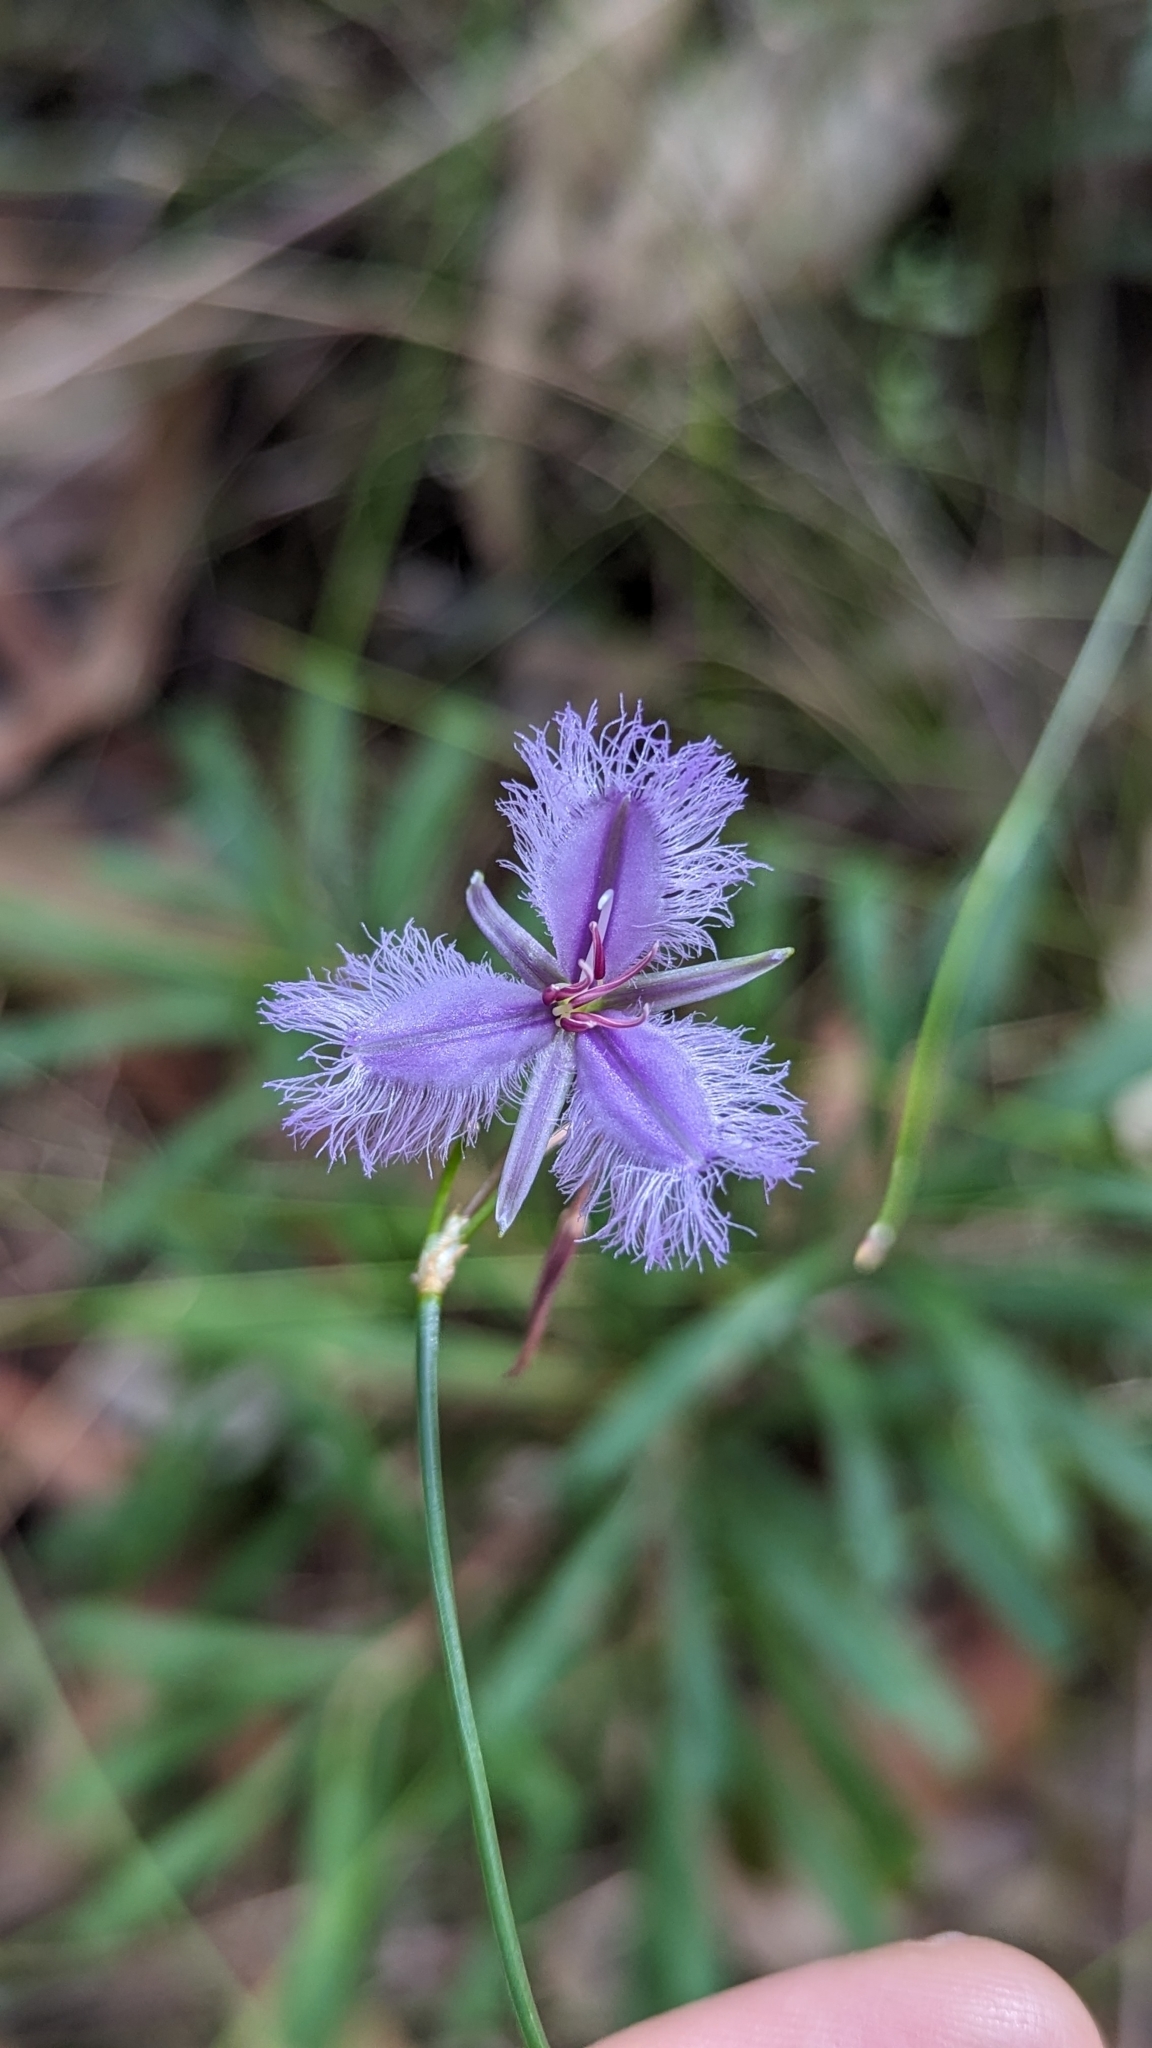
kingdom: Plantae
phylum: Tracheophyta
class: Liliopsida
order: Asparagales
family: Asparagaceae
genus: Thysanotus
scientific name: Thysanotus tuberosus
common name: Common fringed-lily
